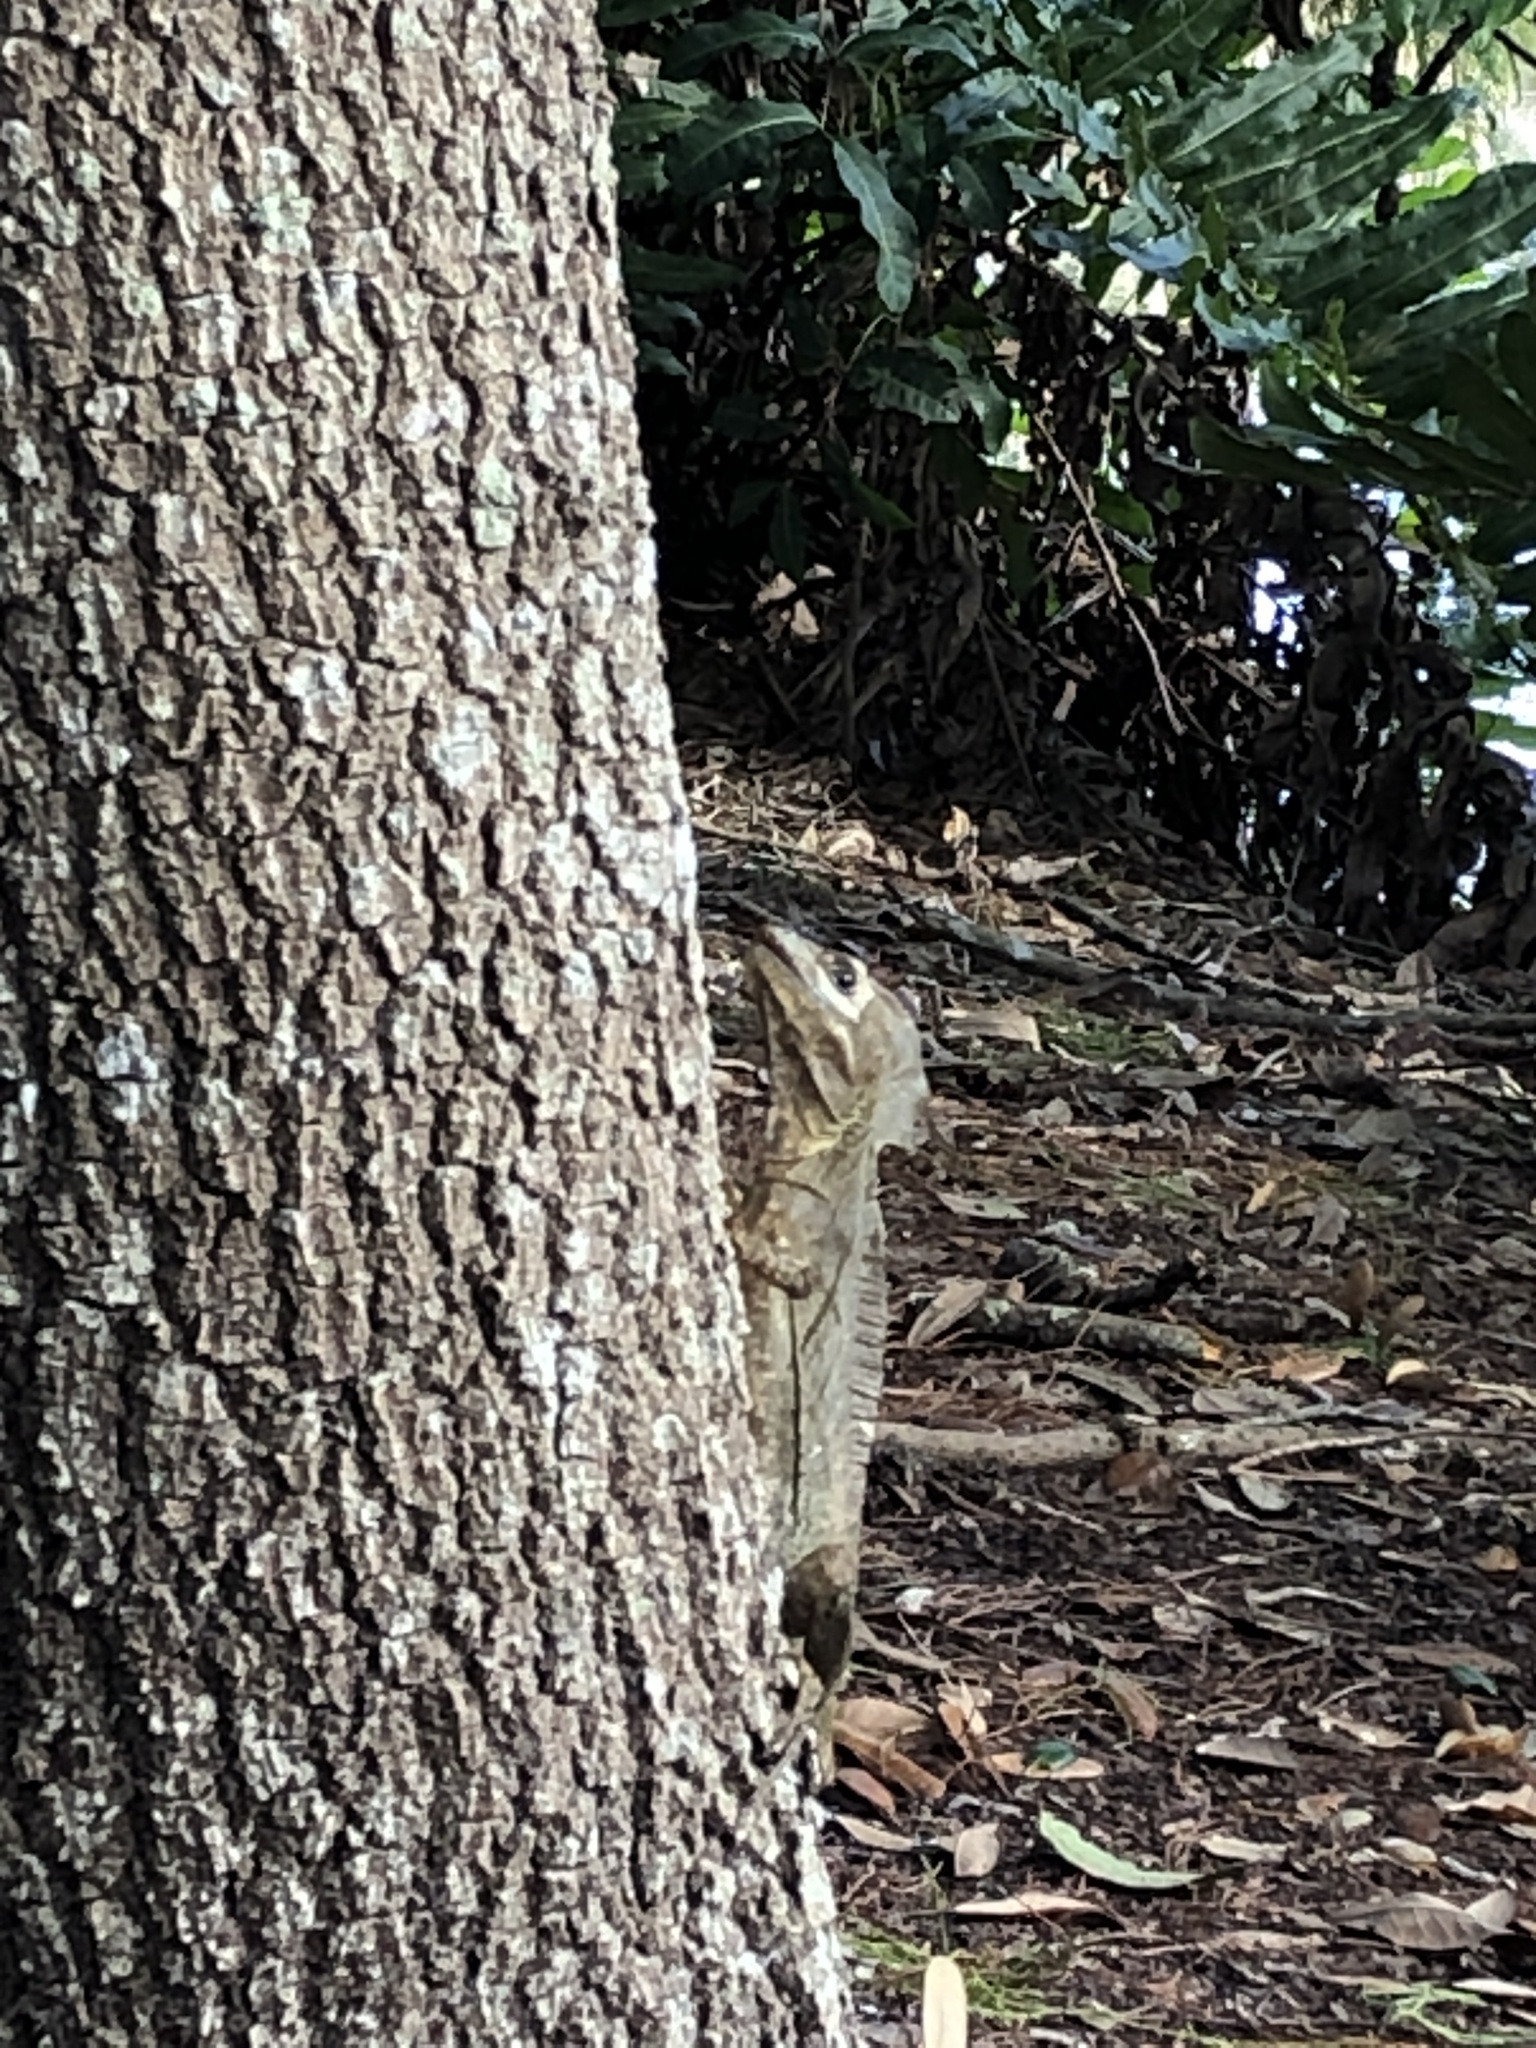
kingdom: Animalia
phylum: Chordata
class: Squamata
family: Corytophanidae
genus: Basiliscus
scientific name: Basiliscus vittatus
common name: Brown basilisk
